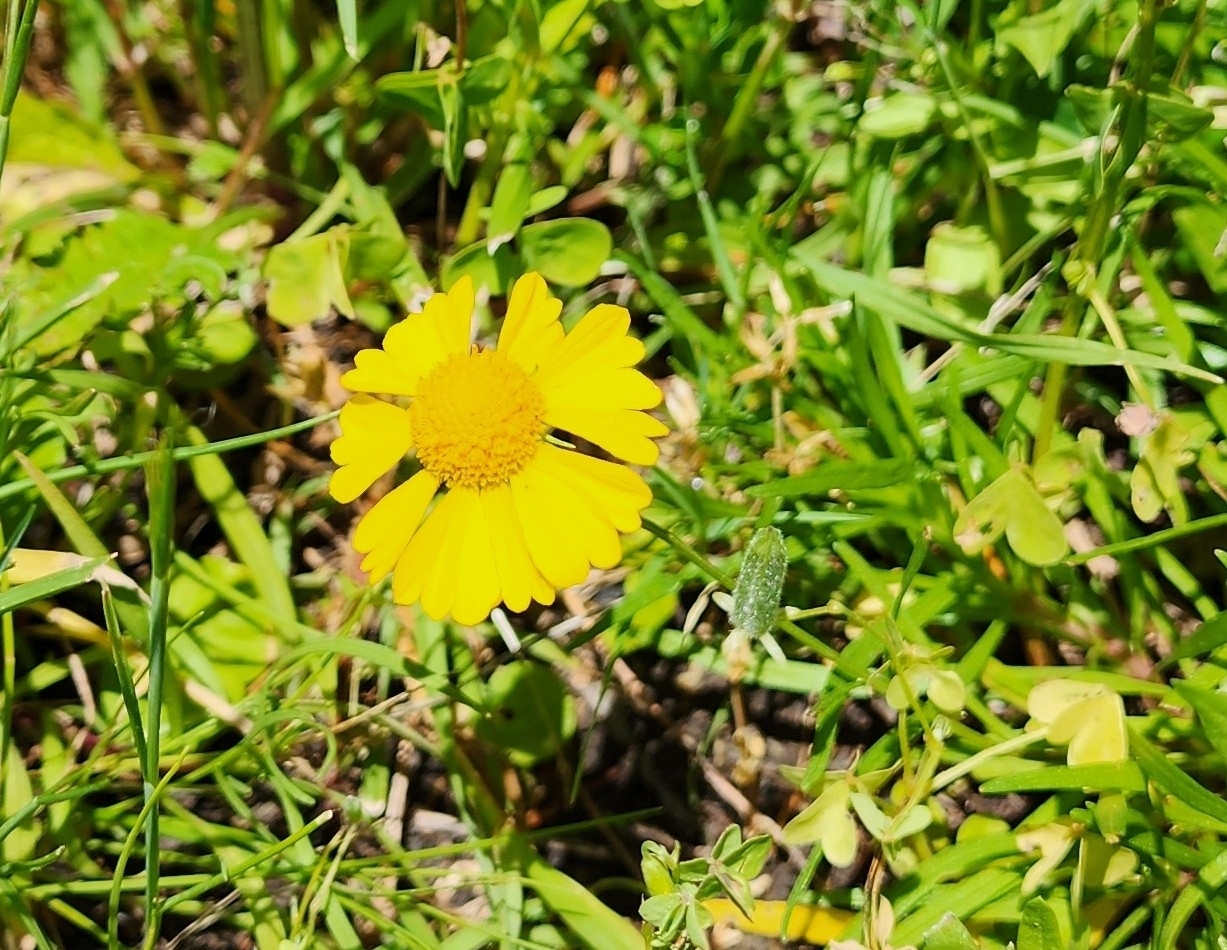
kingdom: Plantae
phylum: Tracheophyta
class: Magnoliopsida
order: Asterales
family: Asteraceae
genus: Helenium
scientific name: Helenium amarum
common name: Bitter sneezeweed
